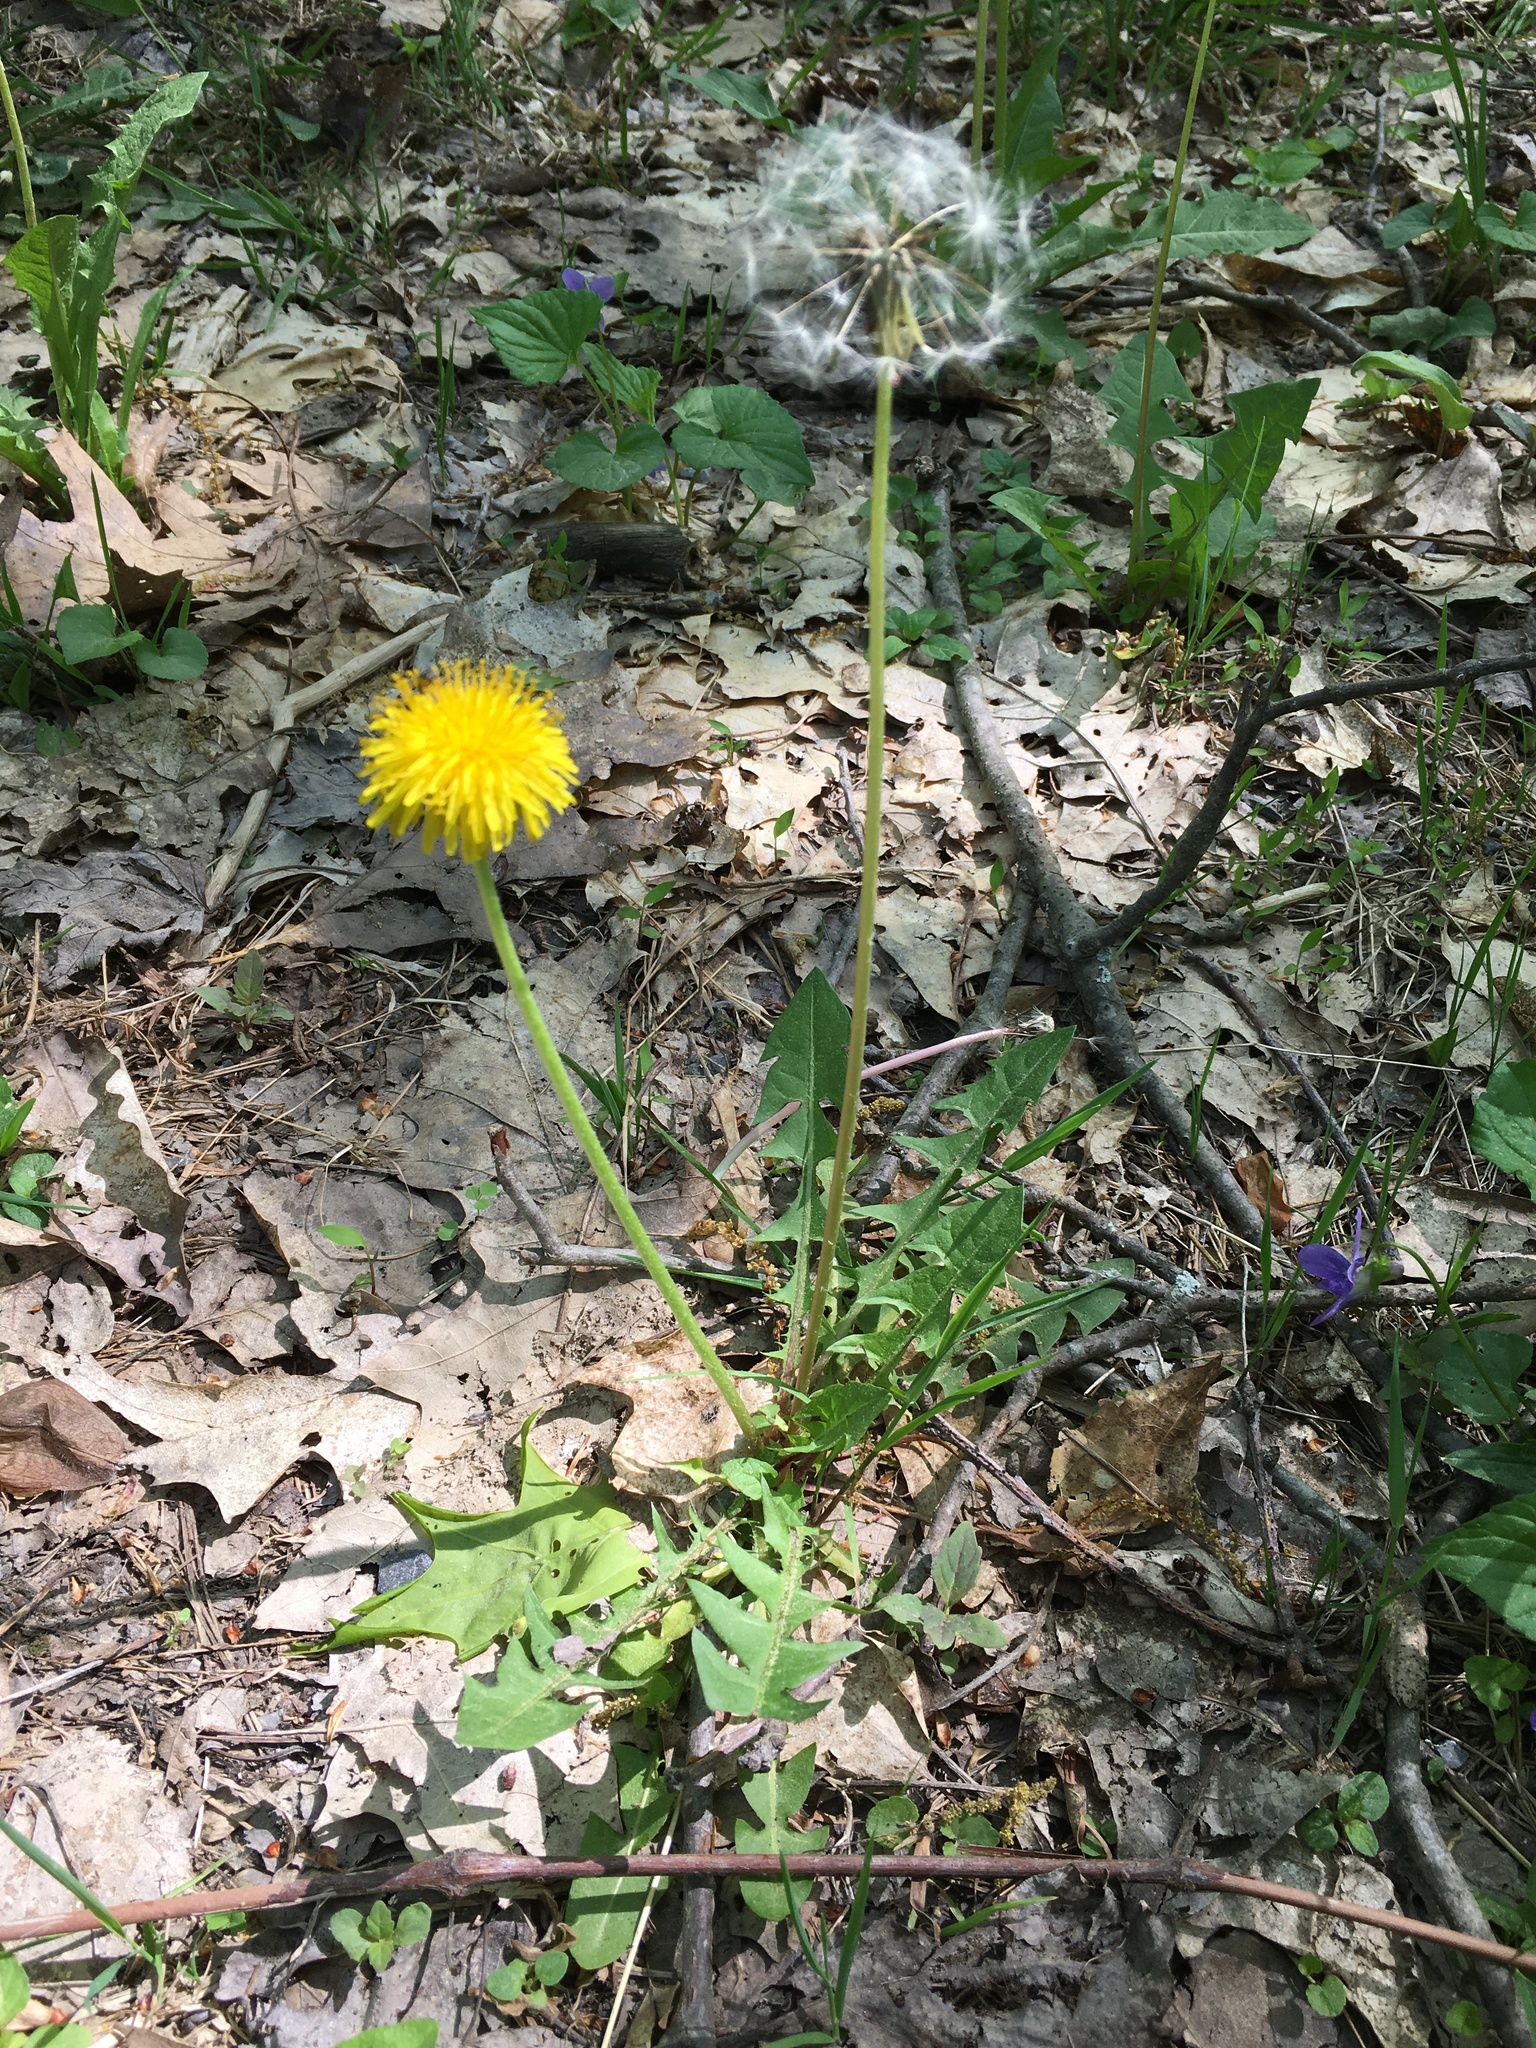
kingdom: Plantae
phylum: Tracheophyta
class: Magnoliopsida
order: Asterales
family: Asteraceae
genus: Taraxacum
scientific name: Taraxacum officinale
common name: Common dandelion
